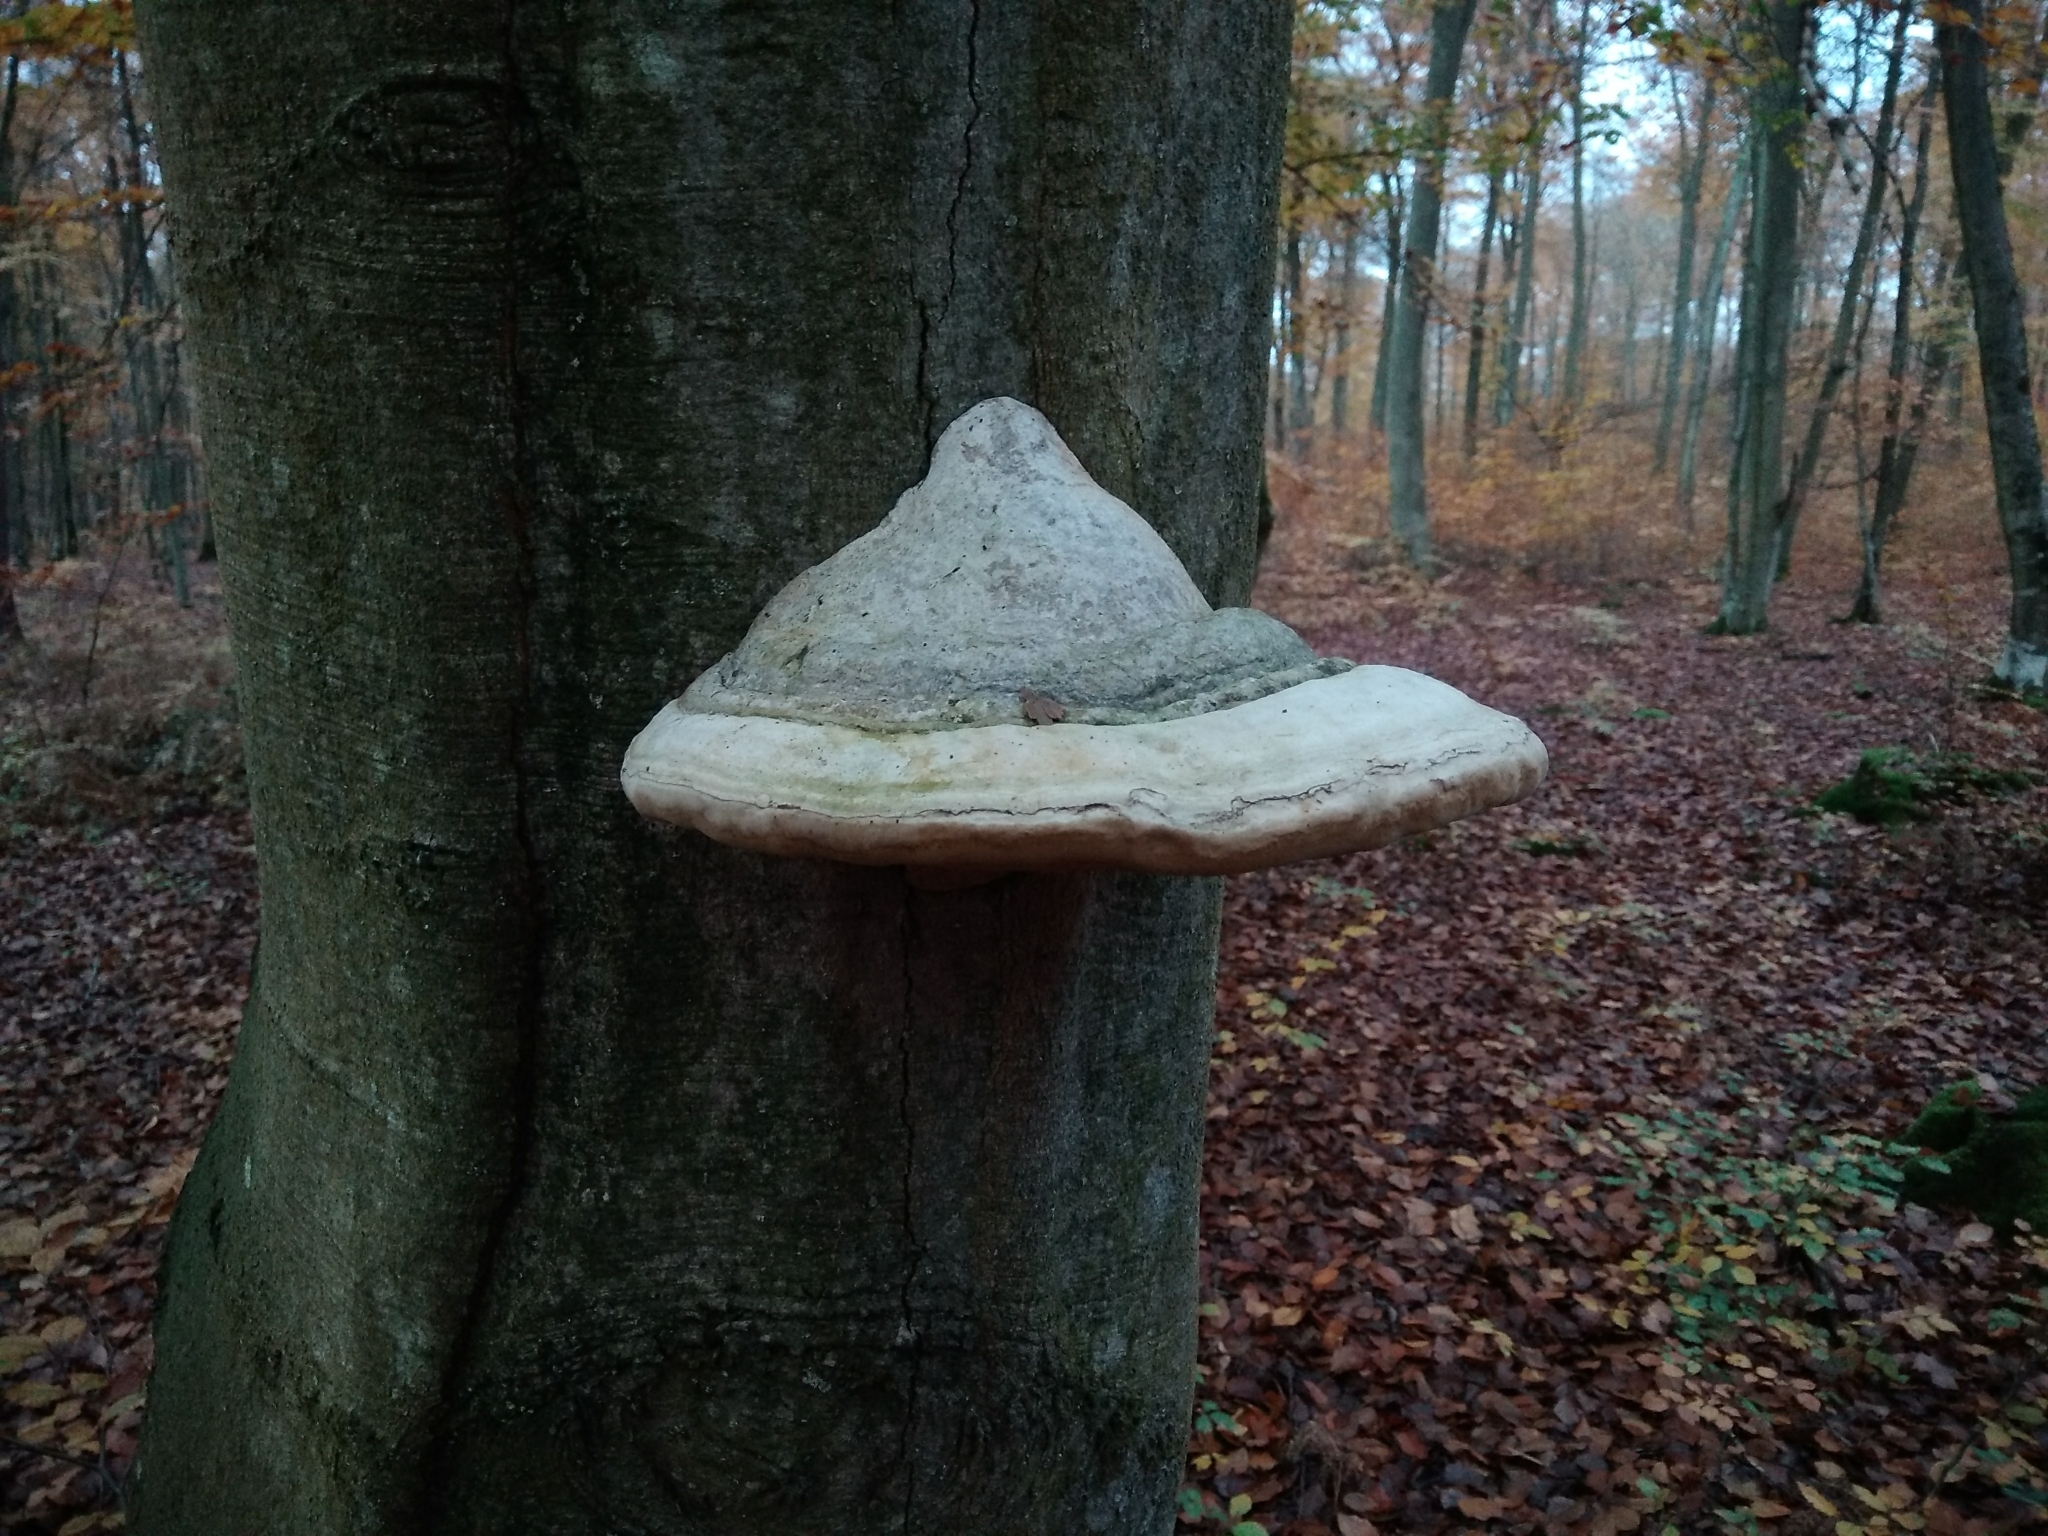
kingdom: Fungi
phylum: Basidiomycota
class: Agaricomycetes
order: Polyporales
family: Polyporaceae
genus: Fomes
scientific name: Fomes fomentarius
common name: Hoof fungus
